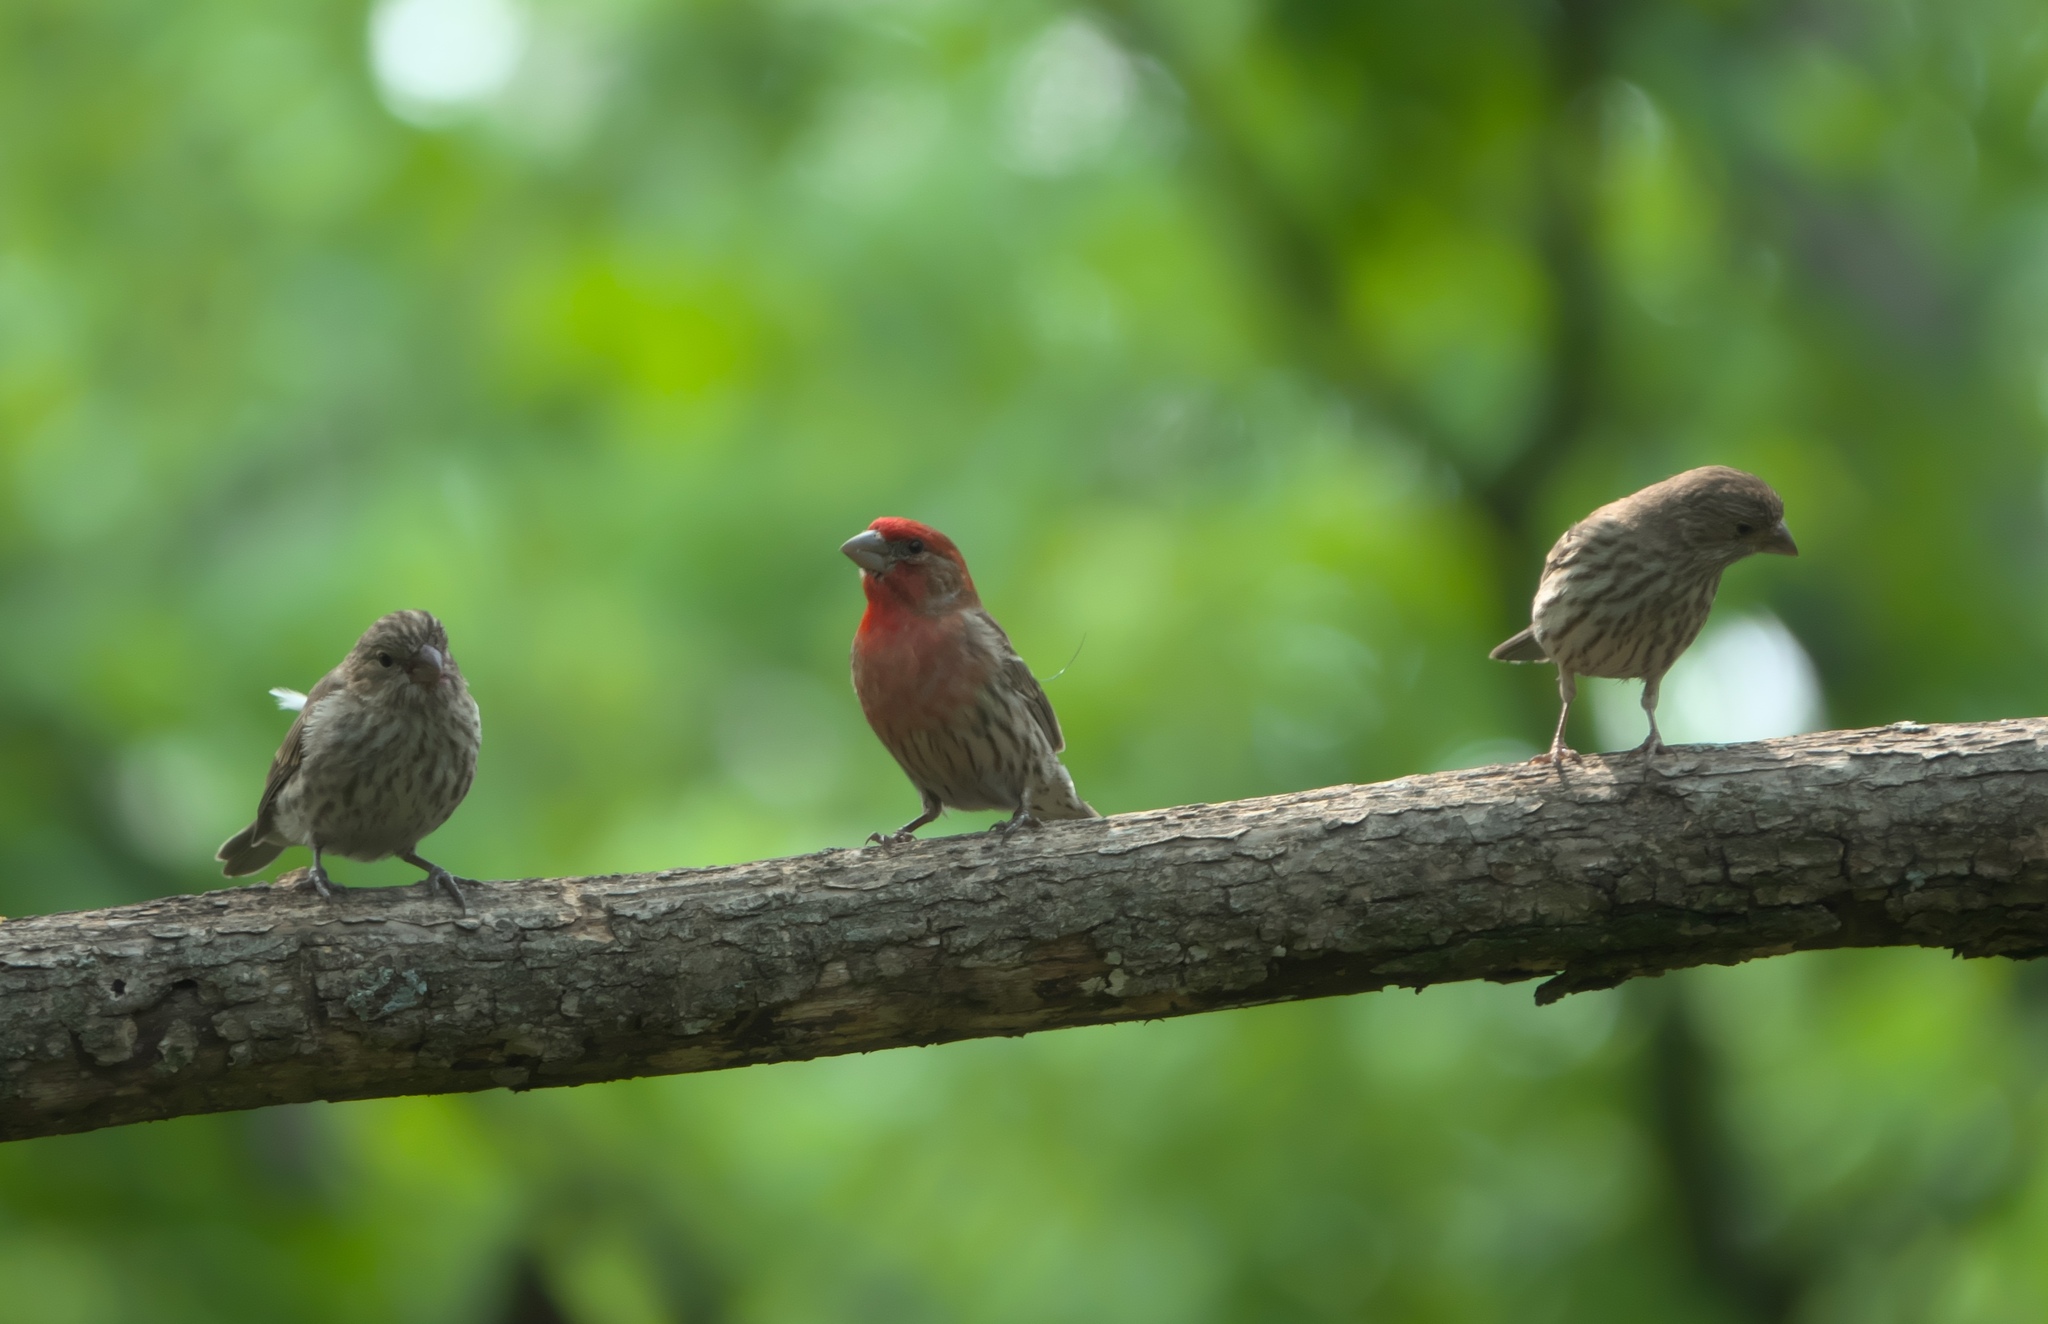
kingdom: Animalia
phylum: Chordata
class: Aves
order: Passeriformes
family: Fringillidae
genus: Haemorhous
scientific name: Haemorhous mexicanus
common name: House finch
